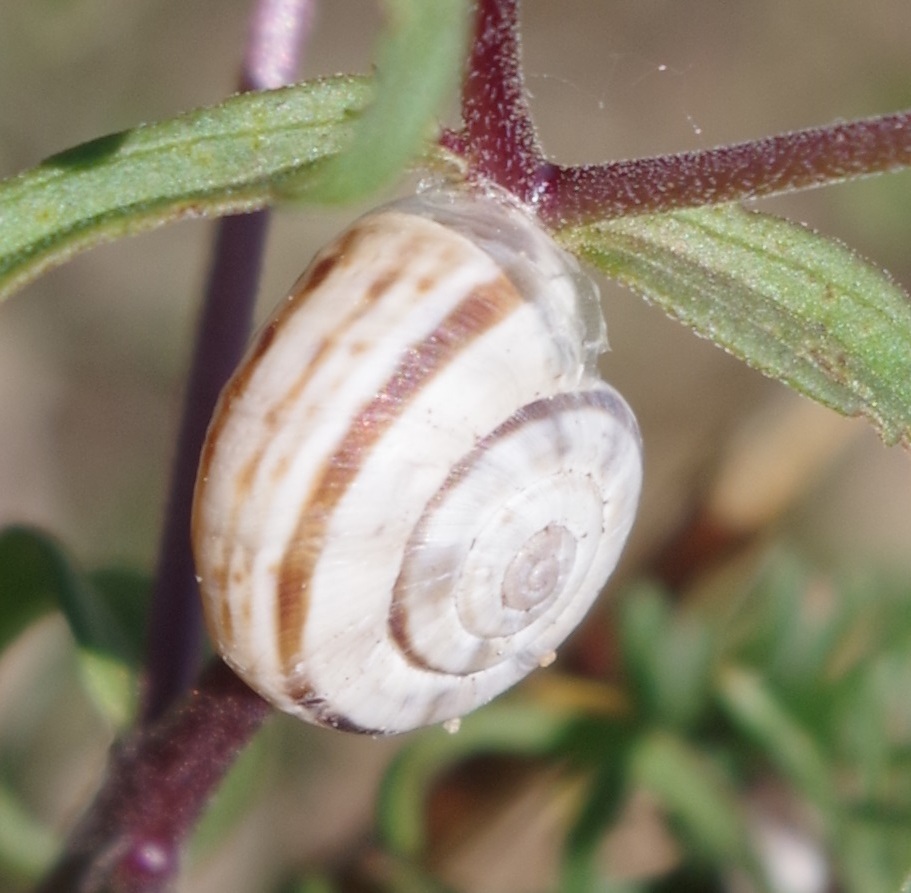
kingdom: Animalia
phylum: Mollusca
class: Gastropoda
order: Stylommatophora
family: Geomitridae
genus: Xerolenta
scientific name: Xerolenta obvia
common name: White heath snail
